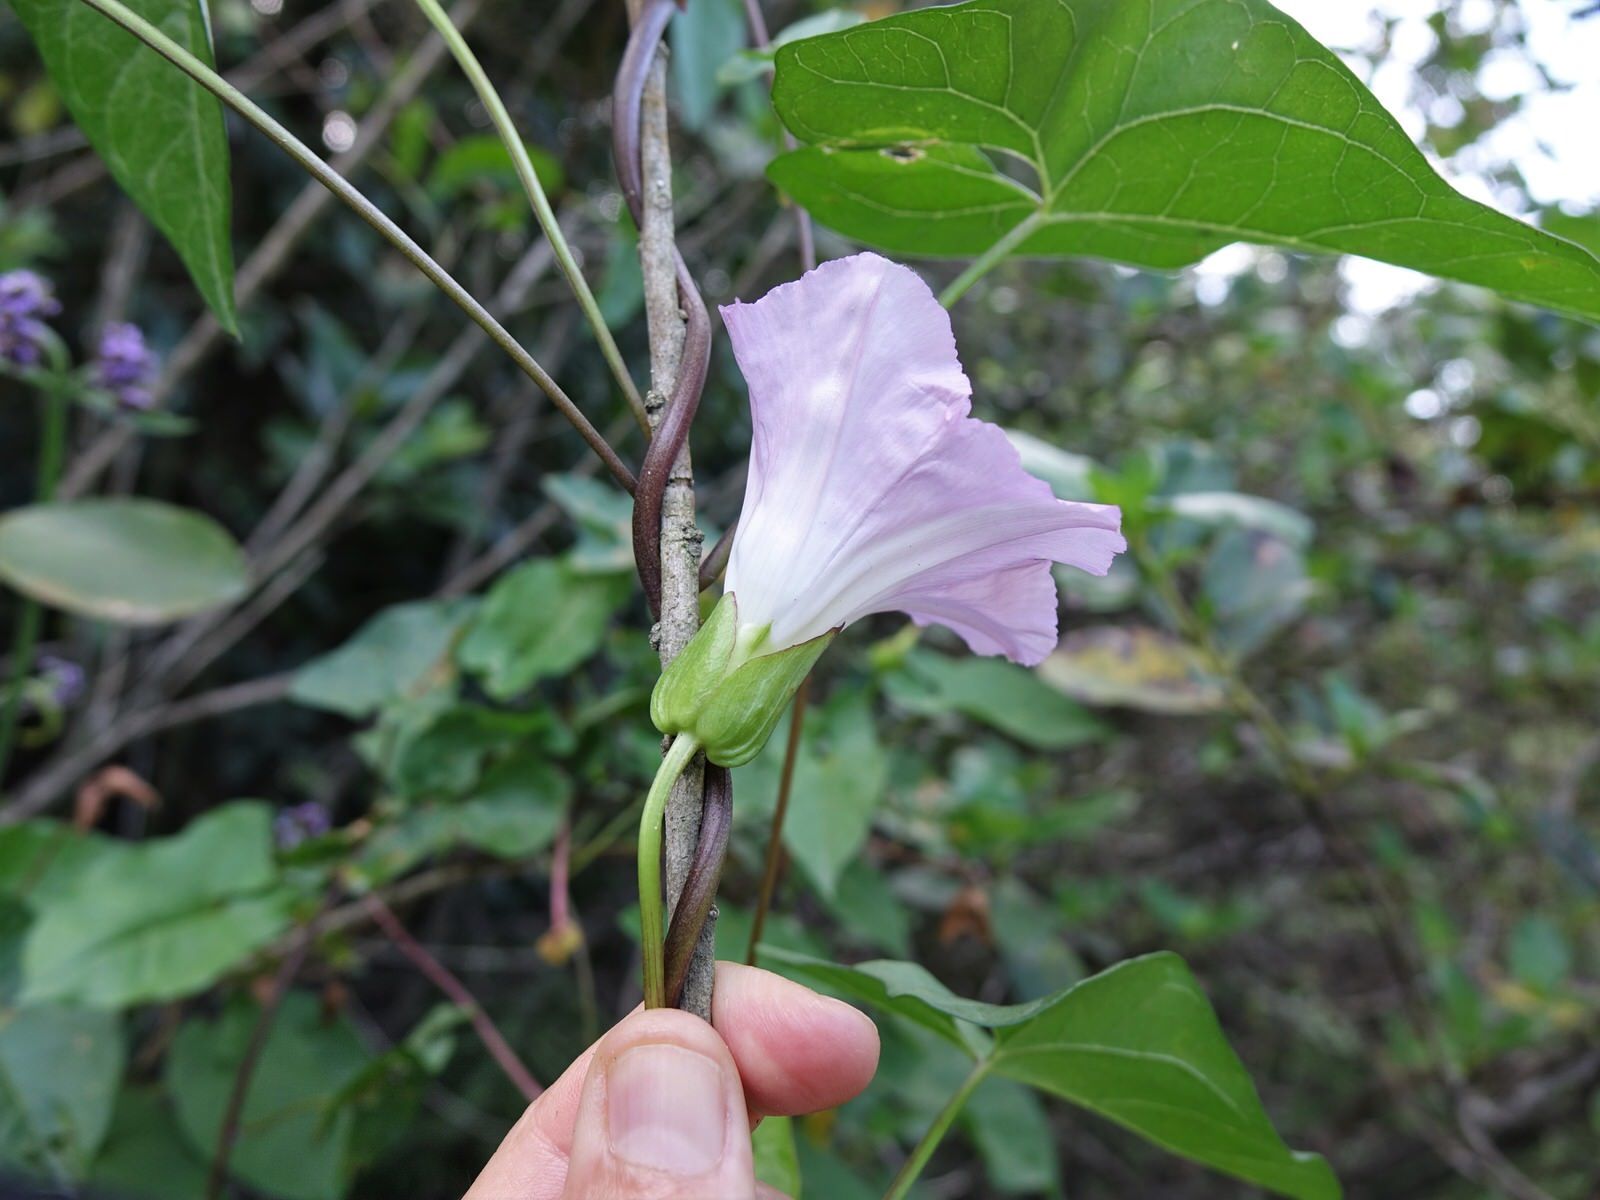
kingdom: Plantae
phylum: Tracheophyta
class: Magnoliopsida
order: Solanales
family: Convolvulaceae
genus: Calystegia
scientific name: Calystegia sepium
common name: Hedge bindweed
